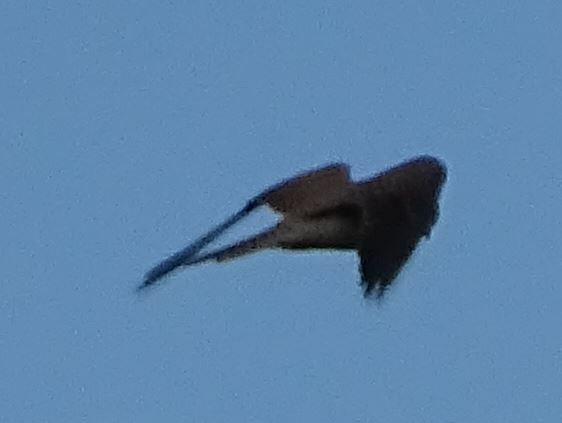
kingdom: Animalia
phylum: Chordata
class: Aves
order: Falconiformes
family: Falconidae
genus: Falco
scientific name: Falco tinnunculus
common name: Common kestrel
